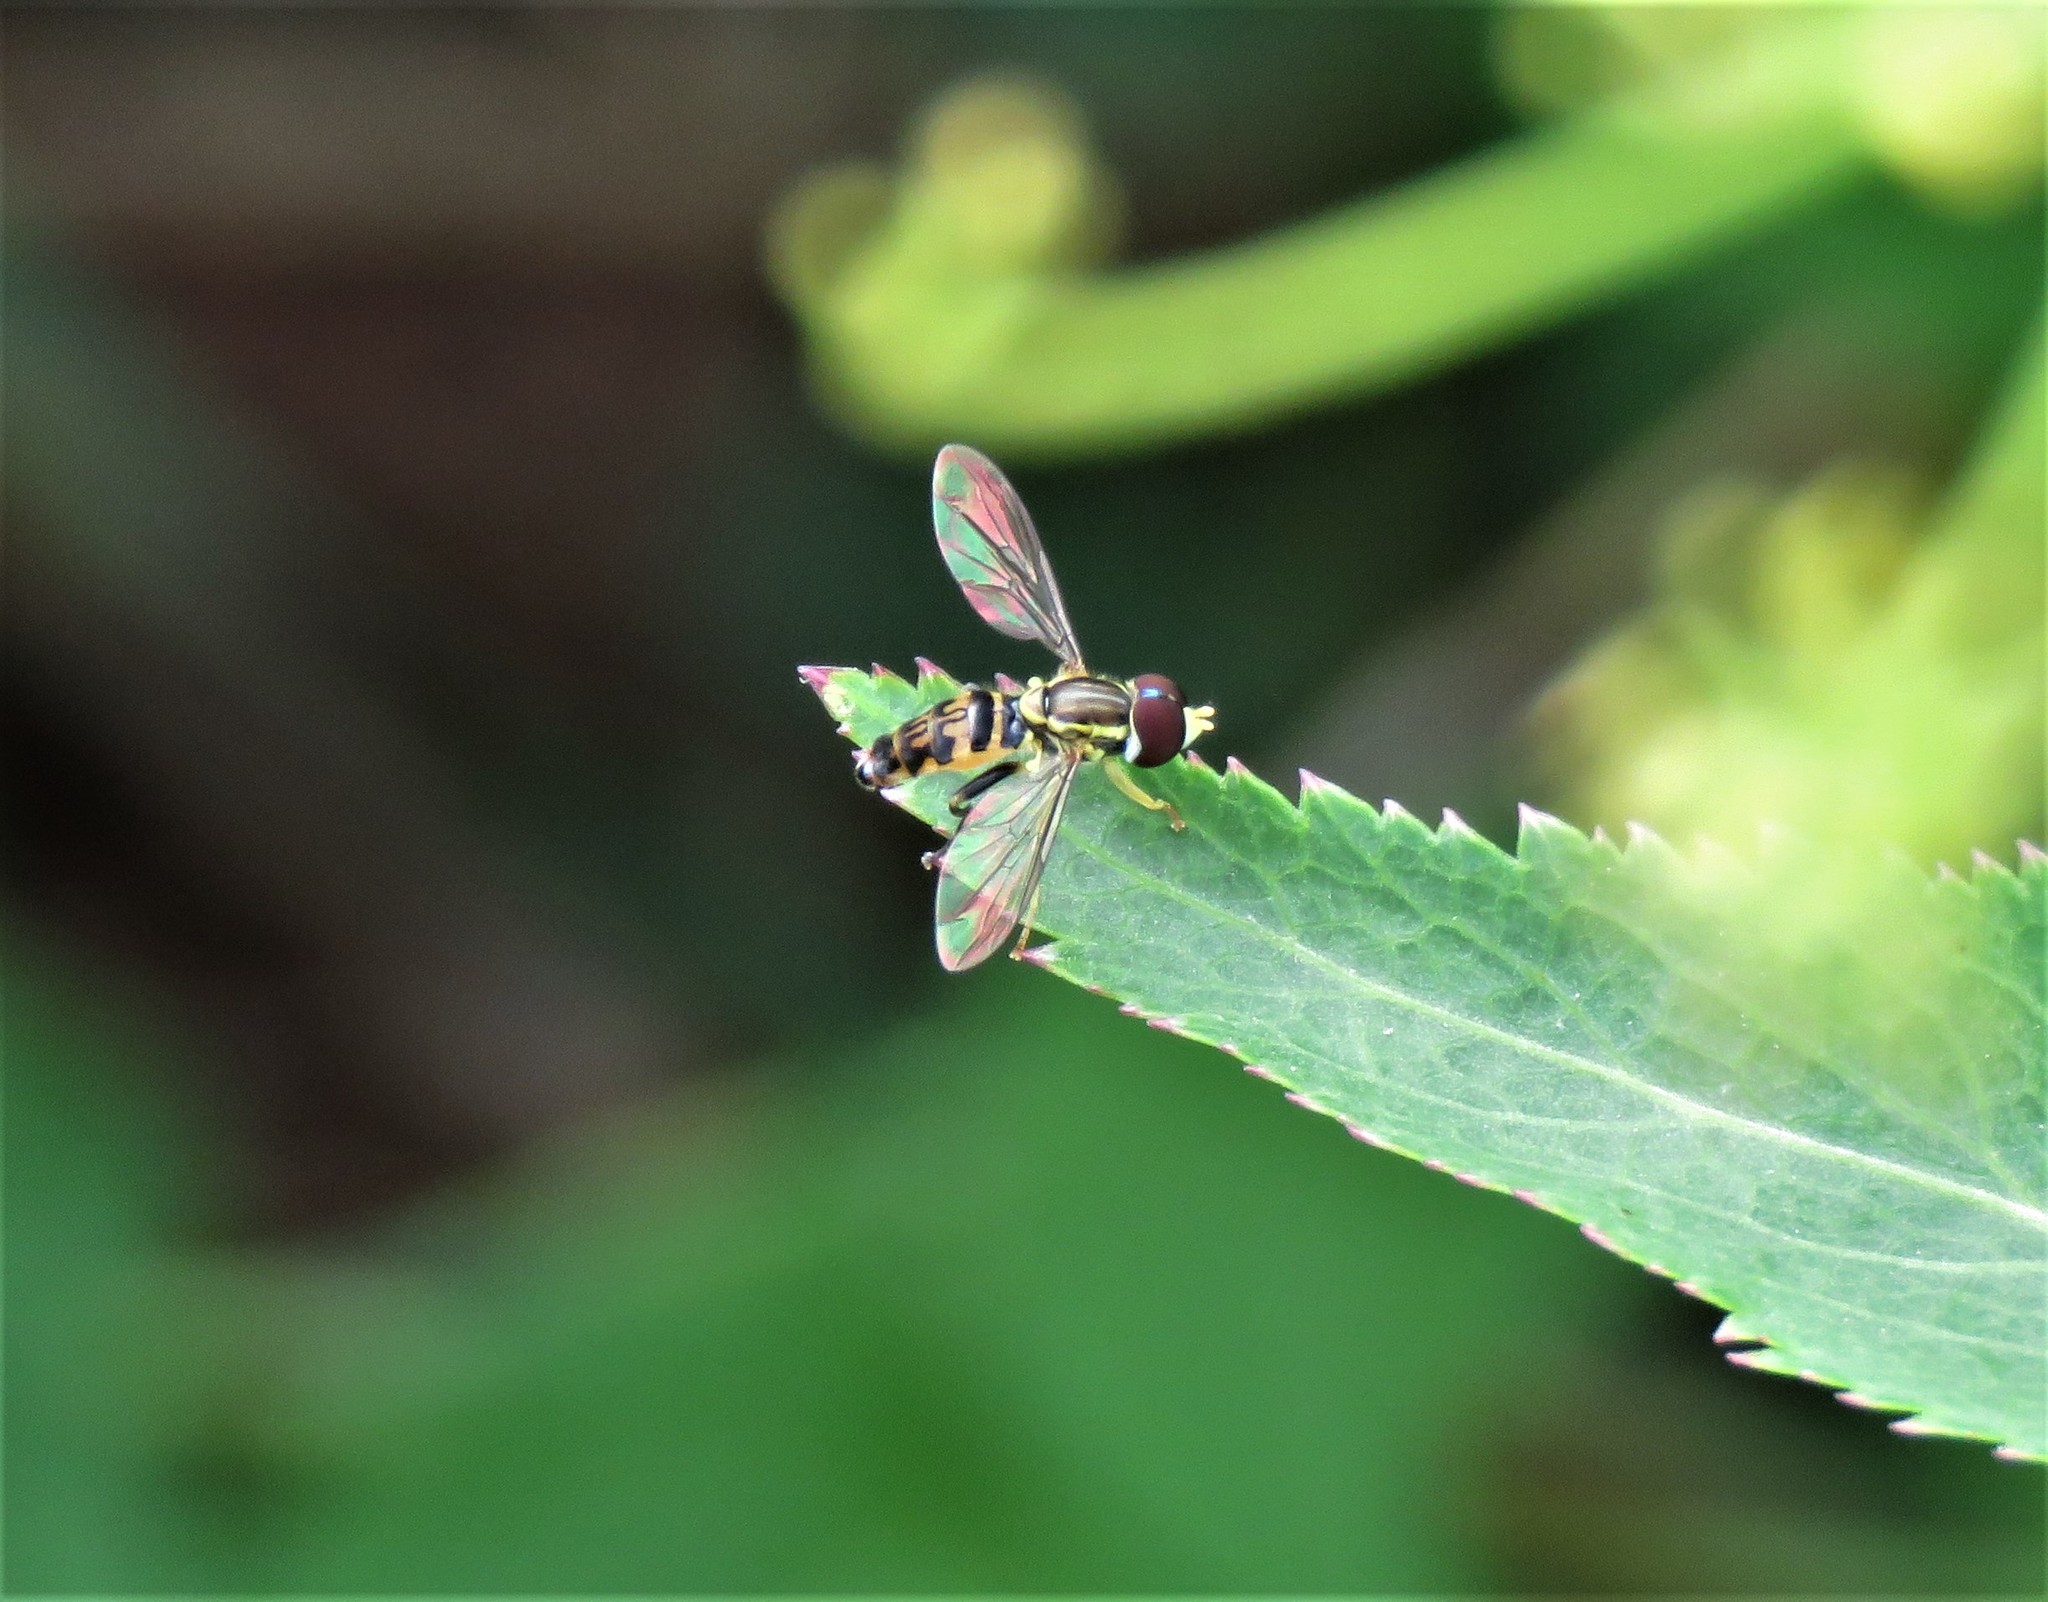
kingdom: Animalia
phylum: Arthropoda
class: Insecta
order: Diptera
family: Syrphidae
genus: Toxomerus
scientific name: Toxomerus geminatus
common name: Eastern calligrapher
